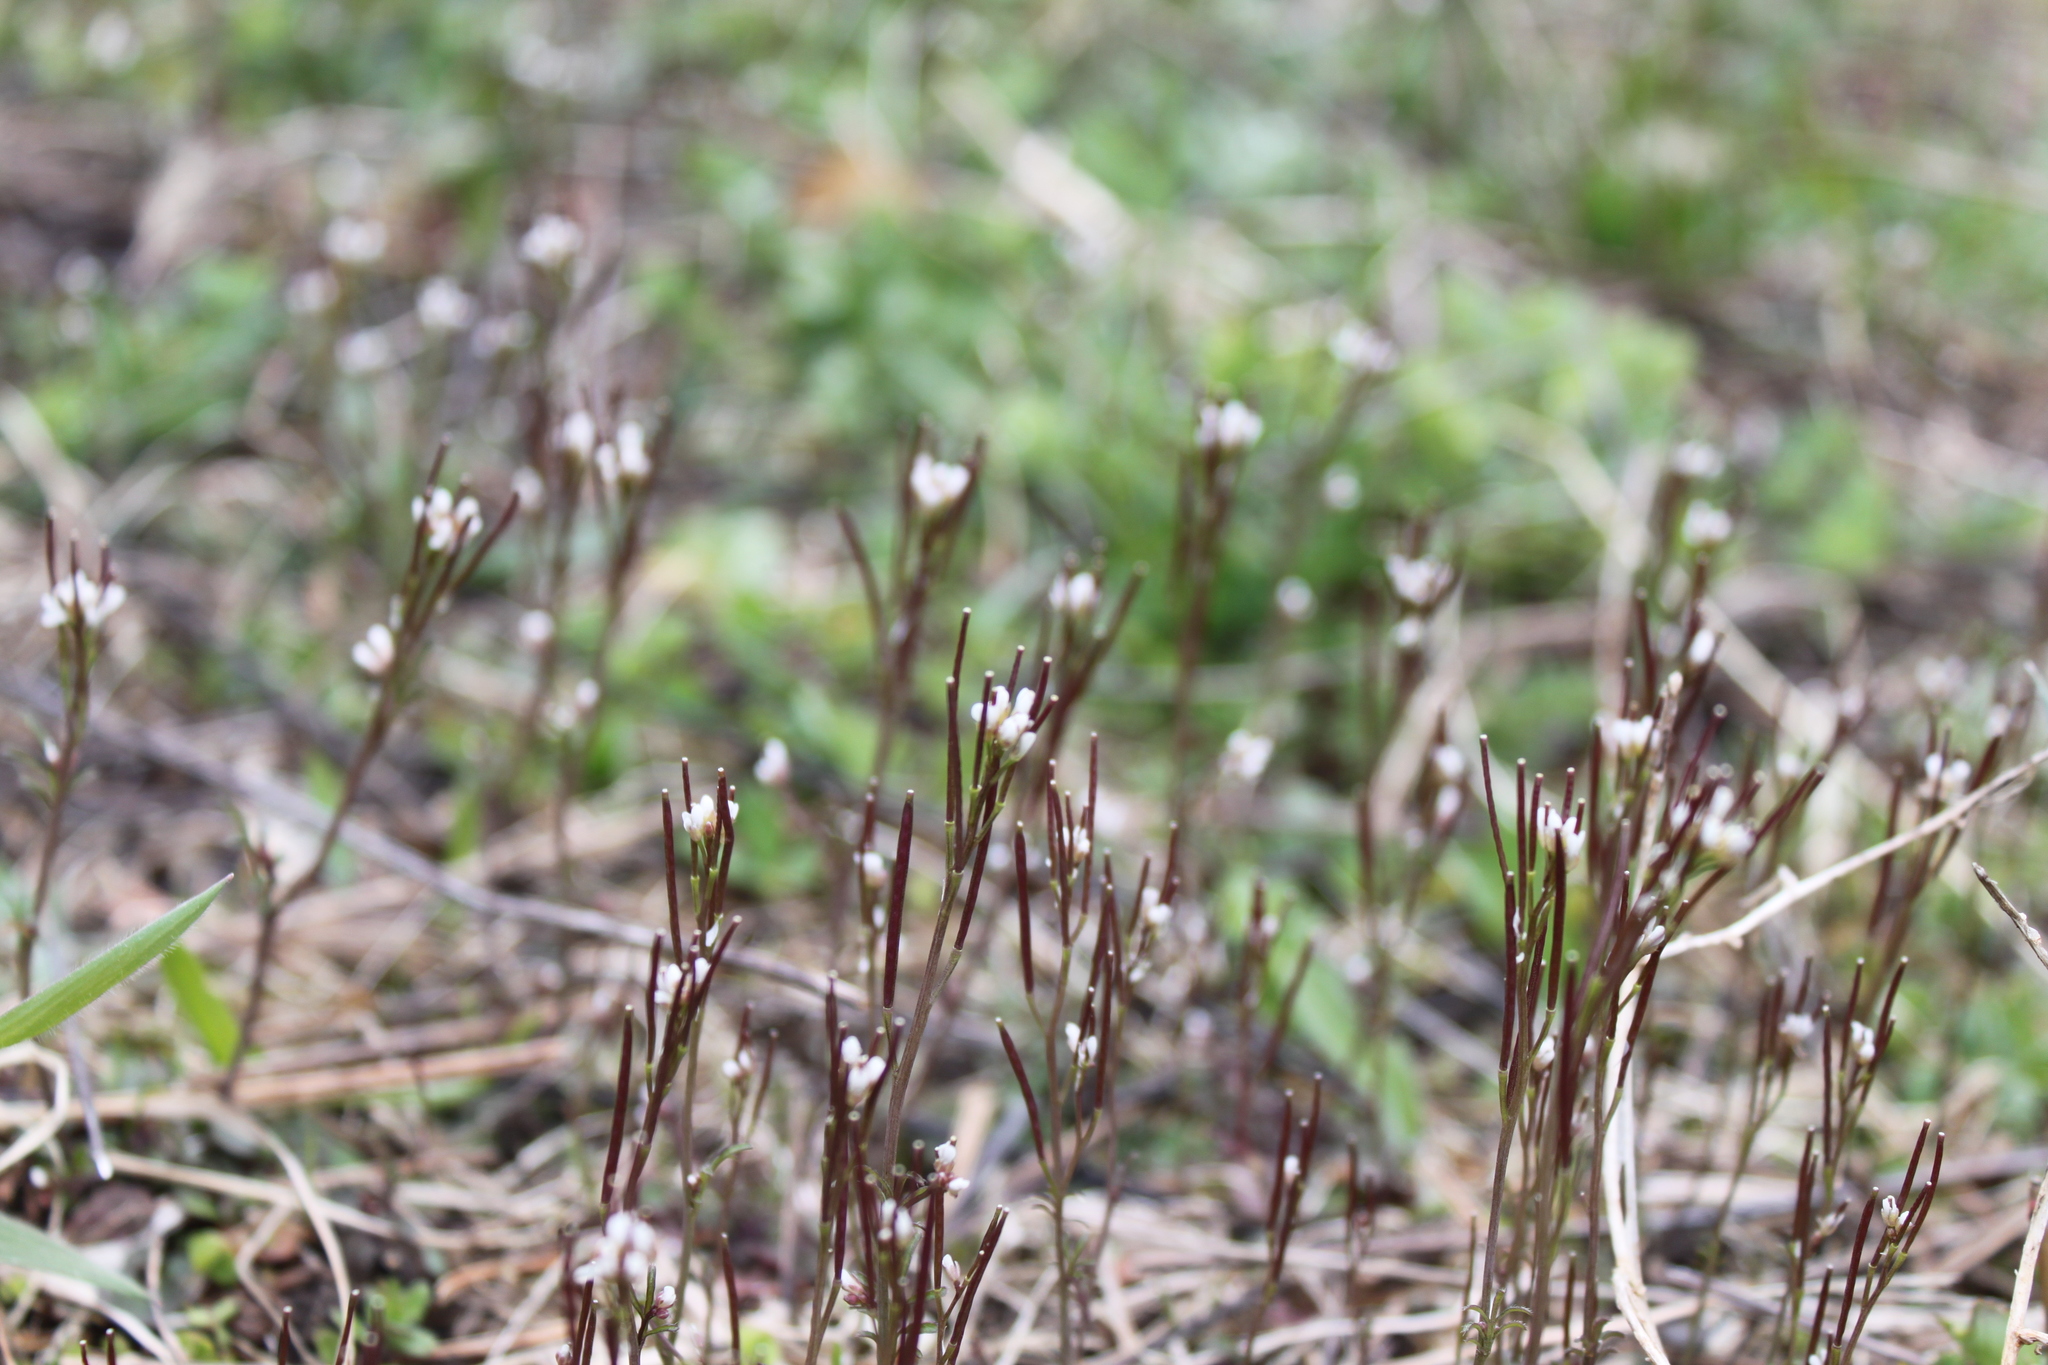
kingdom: Plantae
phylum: Tracheophyta
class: Magnoliopsida
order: Brassicales
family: Brassicaceae
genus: Cardamine
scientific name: Cardamine hirsuta
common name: Hairy bittercress
